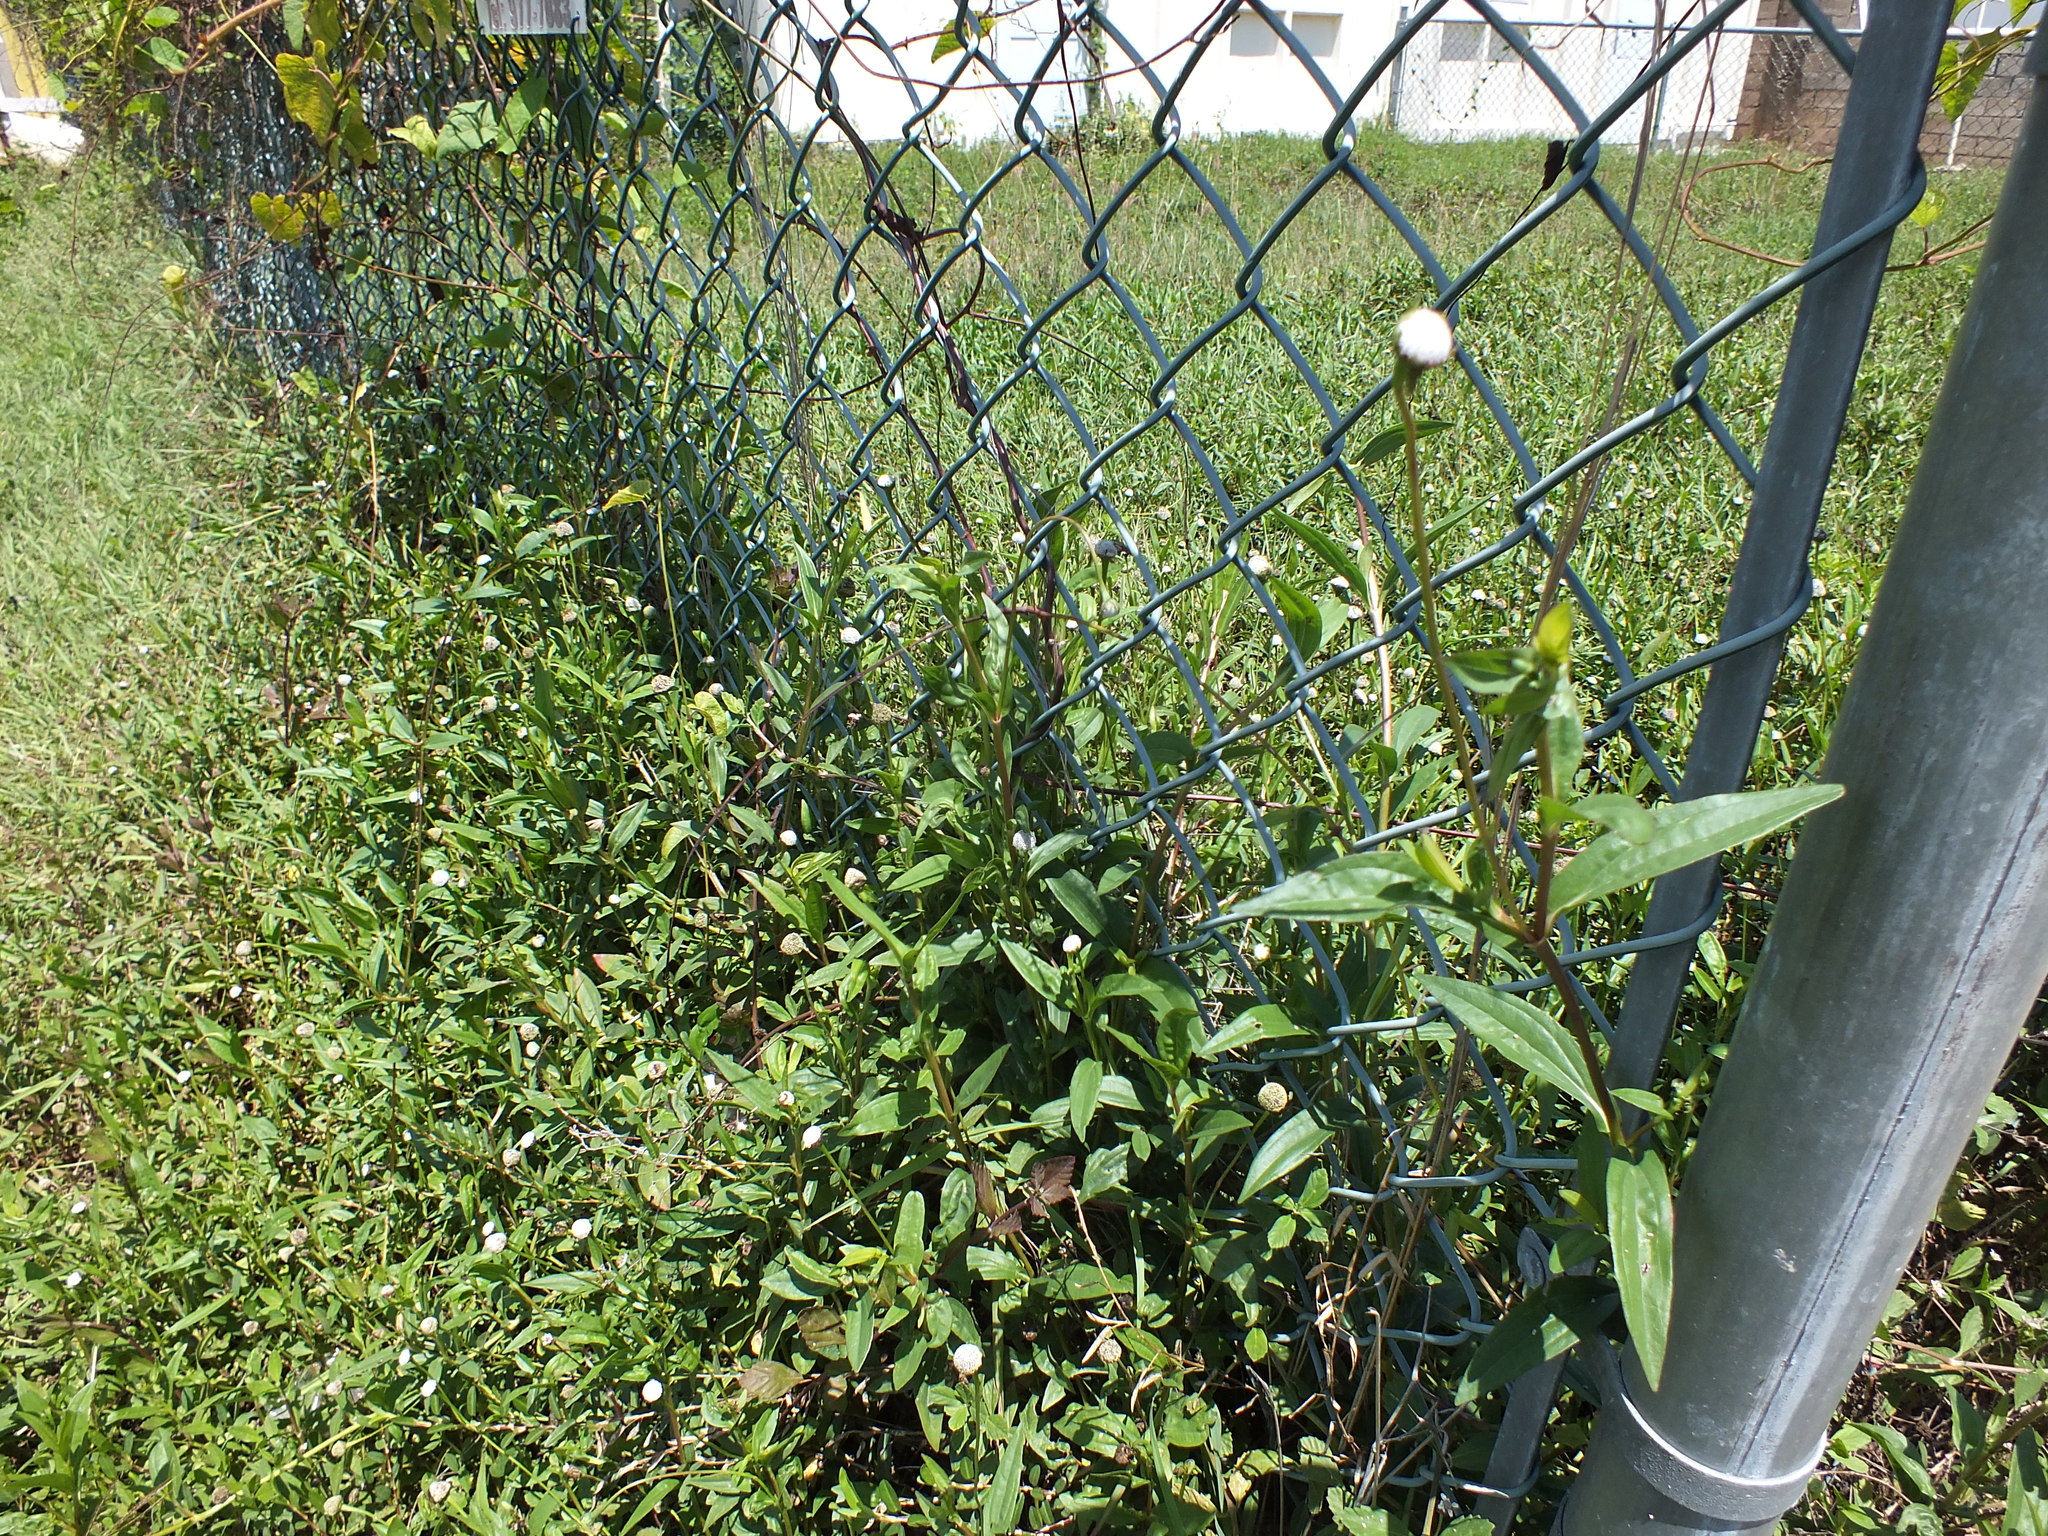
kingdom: Plantae
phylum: Tracheophyta
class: Magnoliopsida
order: Asterales
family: Asteraceae
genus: Spilanthes
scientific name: Spilanthes urens
